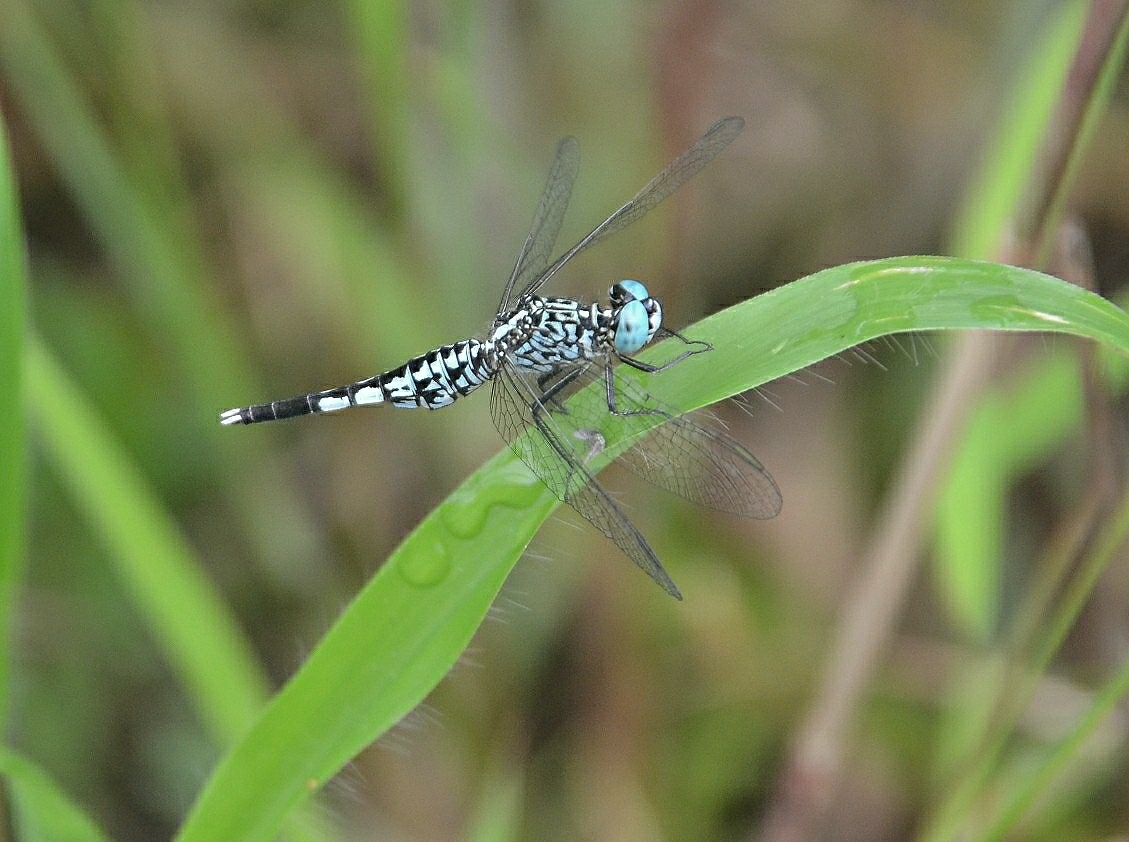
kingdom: Animalia
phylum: Arthropoda
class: Insecta
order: Odonata
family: Libellulidae
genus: Acisoma
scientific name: Acisoma panorpoides
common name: Asian pintail
